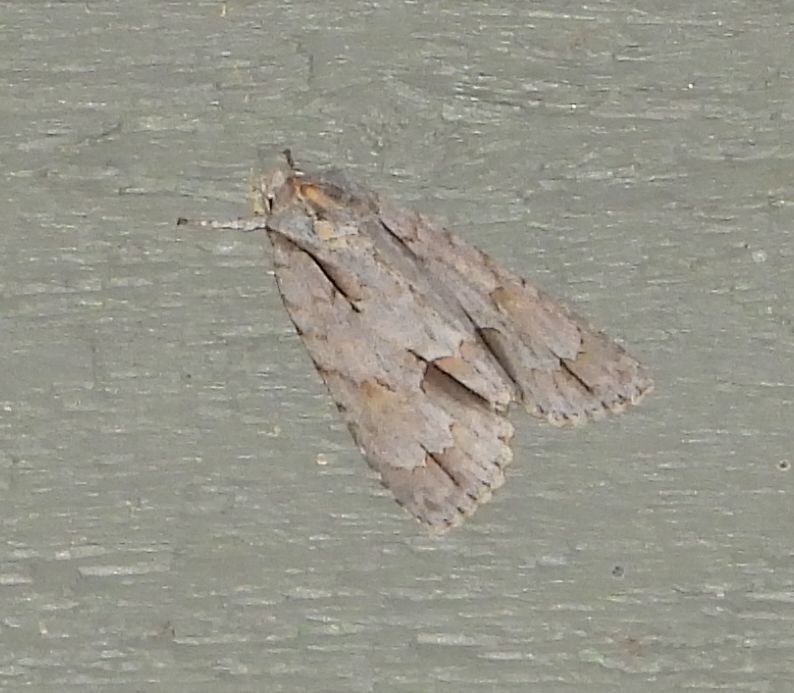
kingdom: Animalia
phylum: Arthropoda
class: Insecta
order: Lepidoptera
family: Noctuidae
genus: Acronicta
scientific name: Acronicta morula
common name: Ochre dagger
